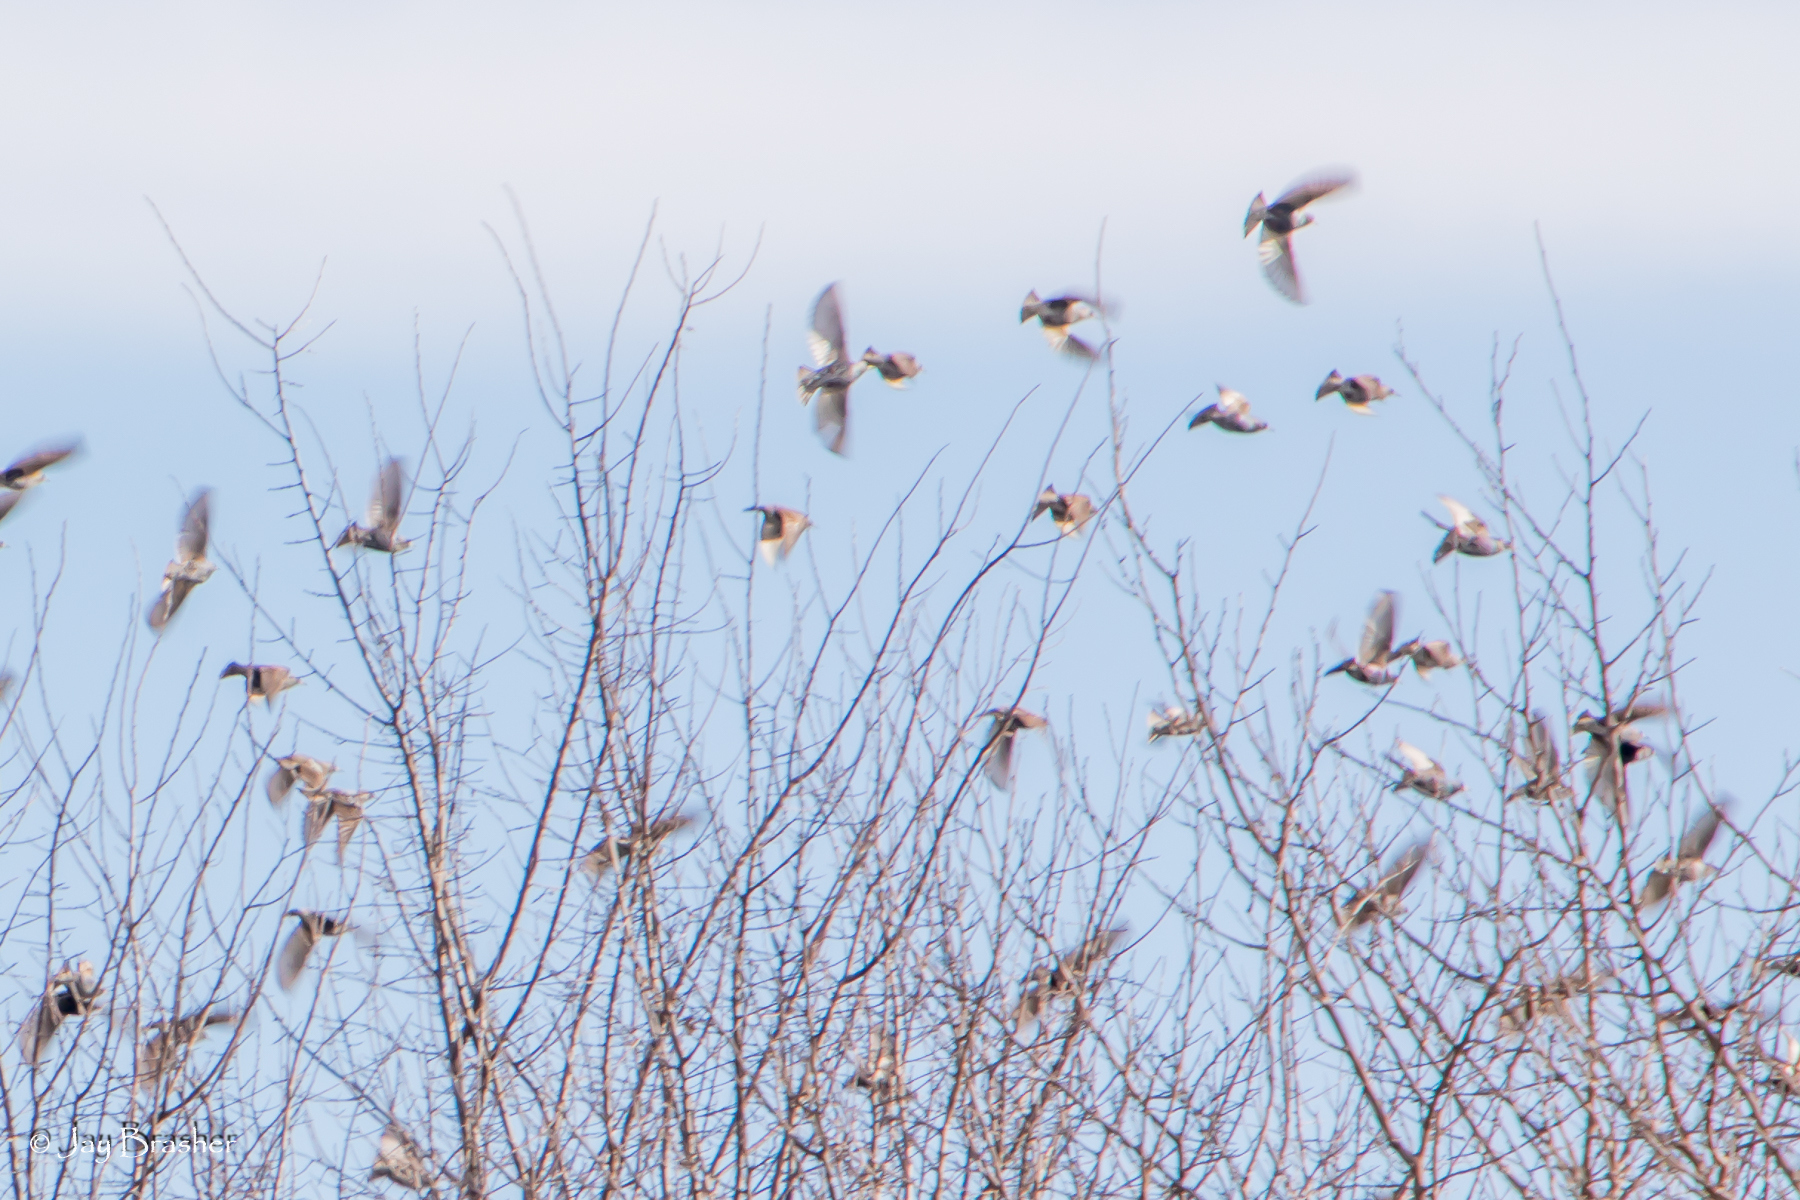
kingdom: Animalia
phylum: Chordata
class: Aves
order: Passeriformes
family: Sturnidae
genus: Sturnus
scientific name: Sturnus vulgaris
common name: Common starling
